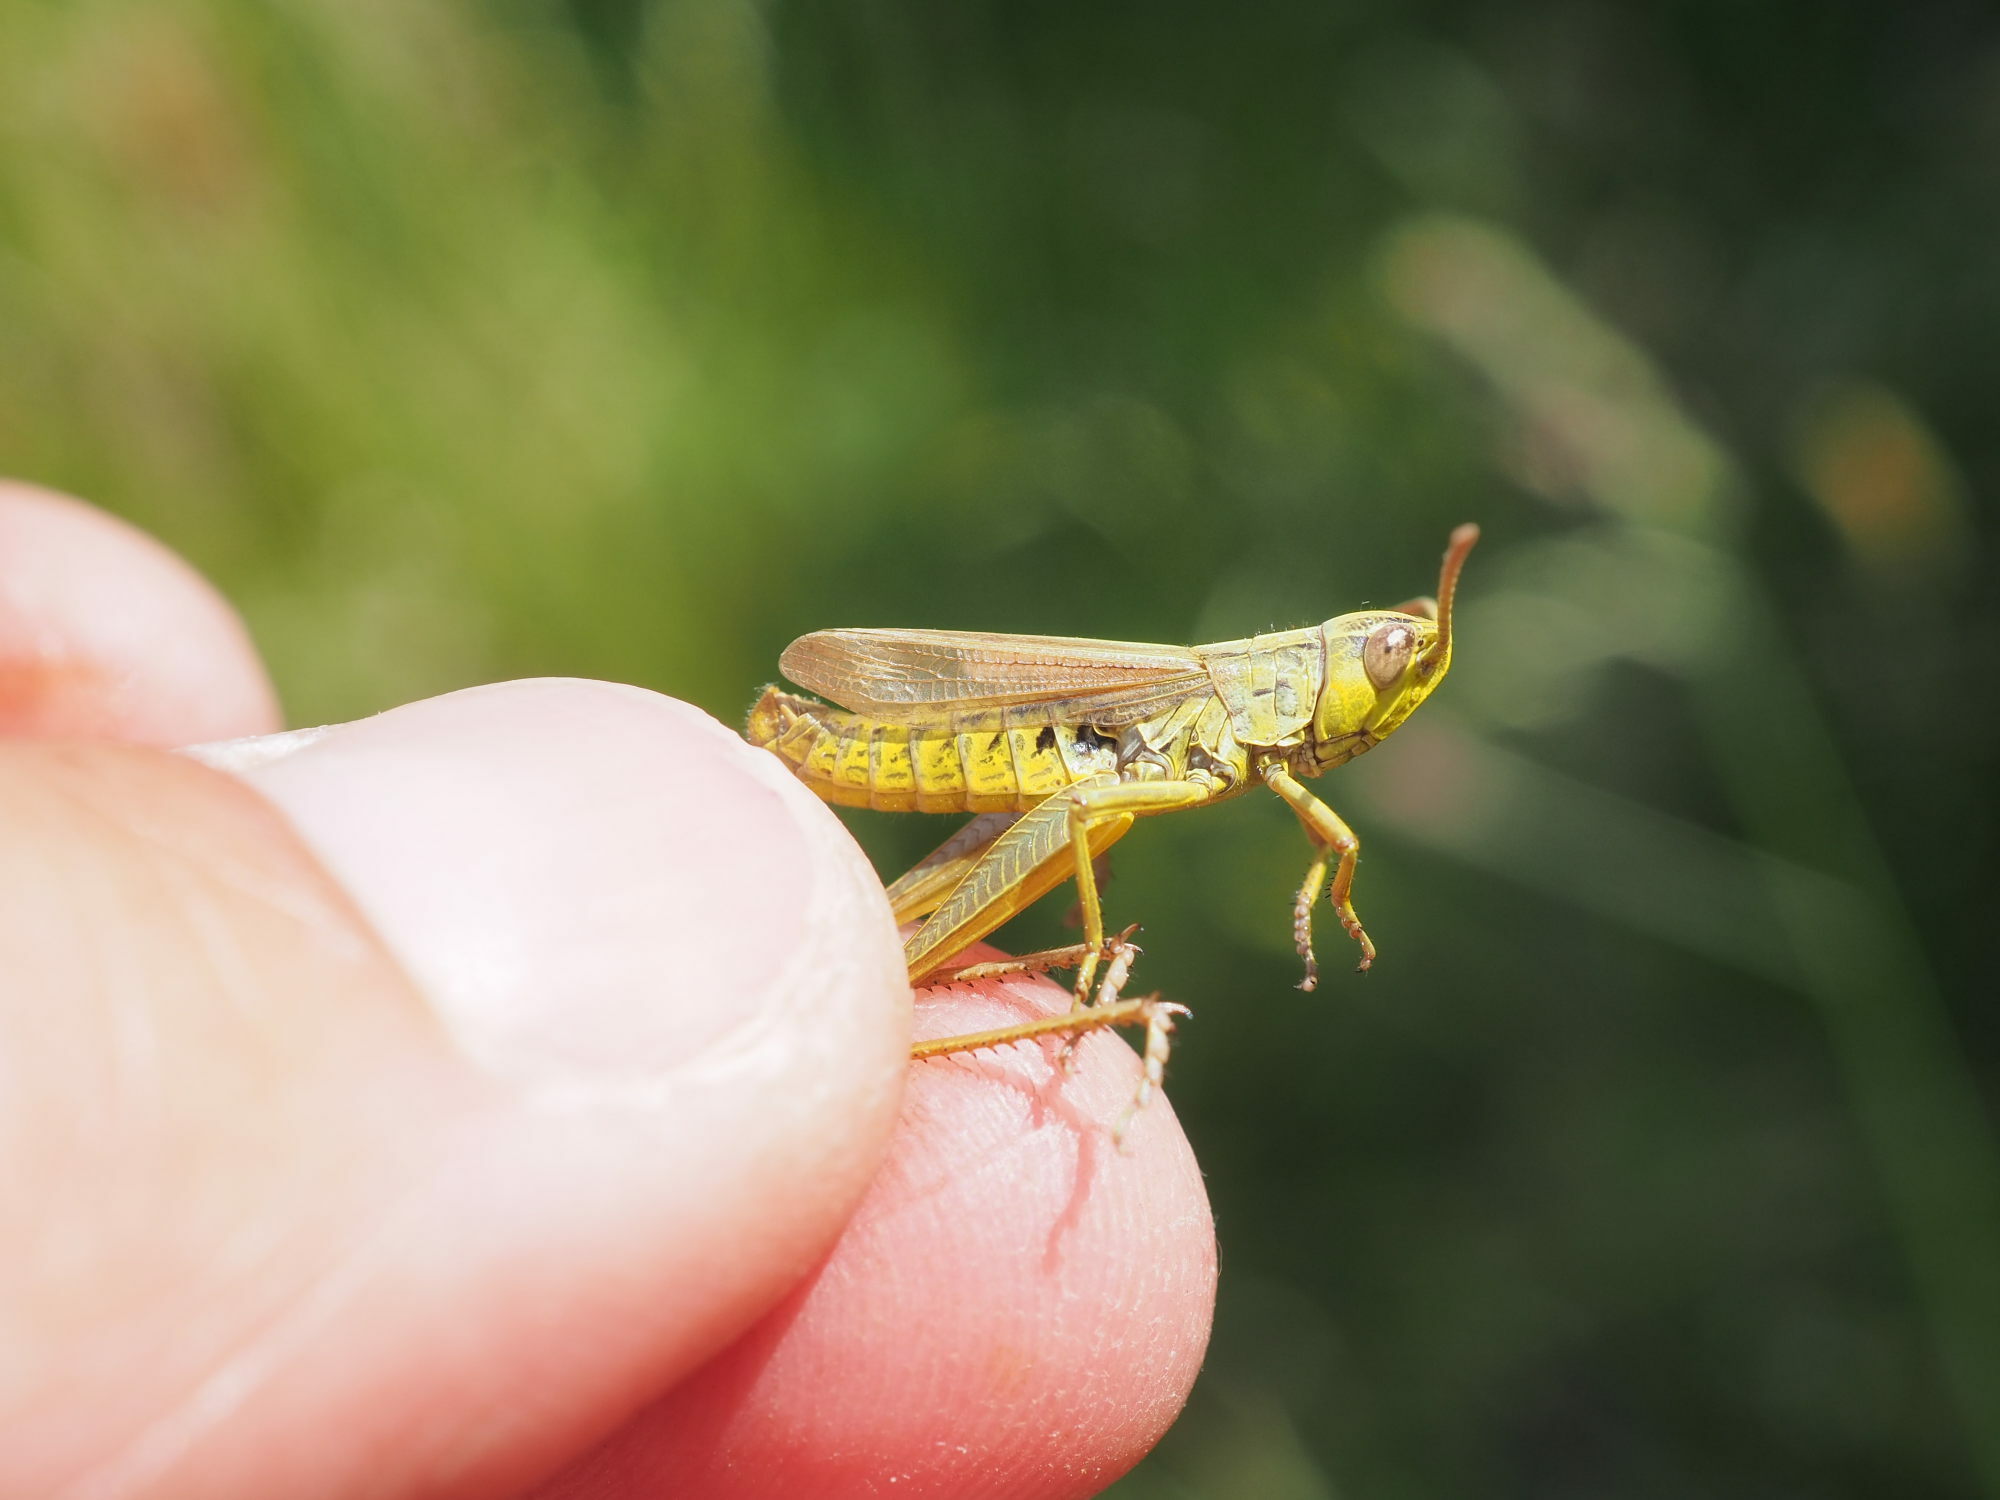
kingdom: Animalia
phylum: Arthropoda
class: Insecta
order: Orthoptera
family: Acrididae
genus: Pseudochorthippus
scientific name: Pseudochorthippus parallelus
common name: Meadow grasshopper
